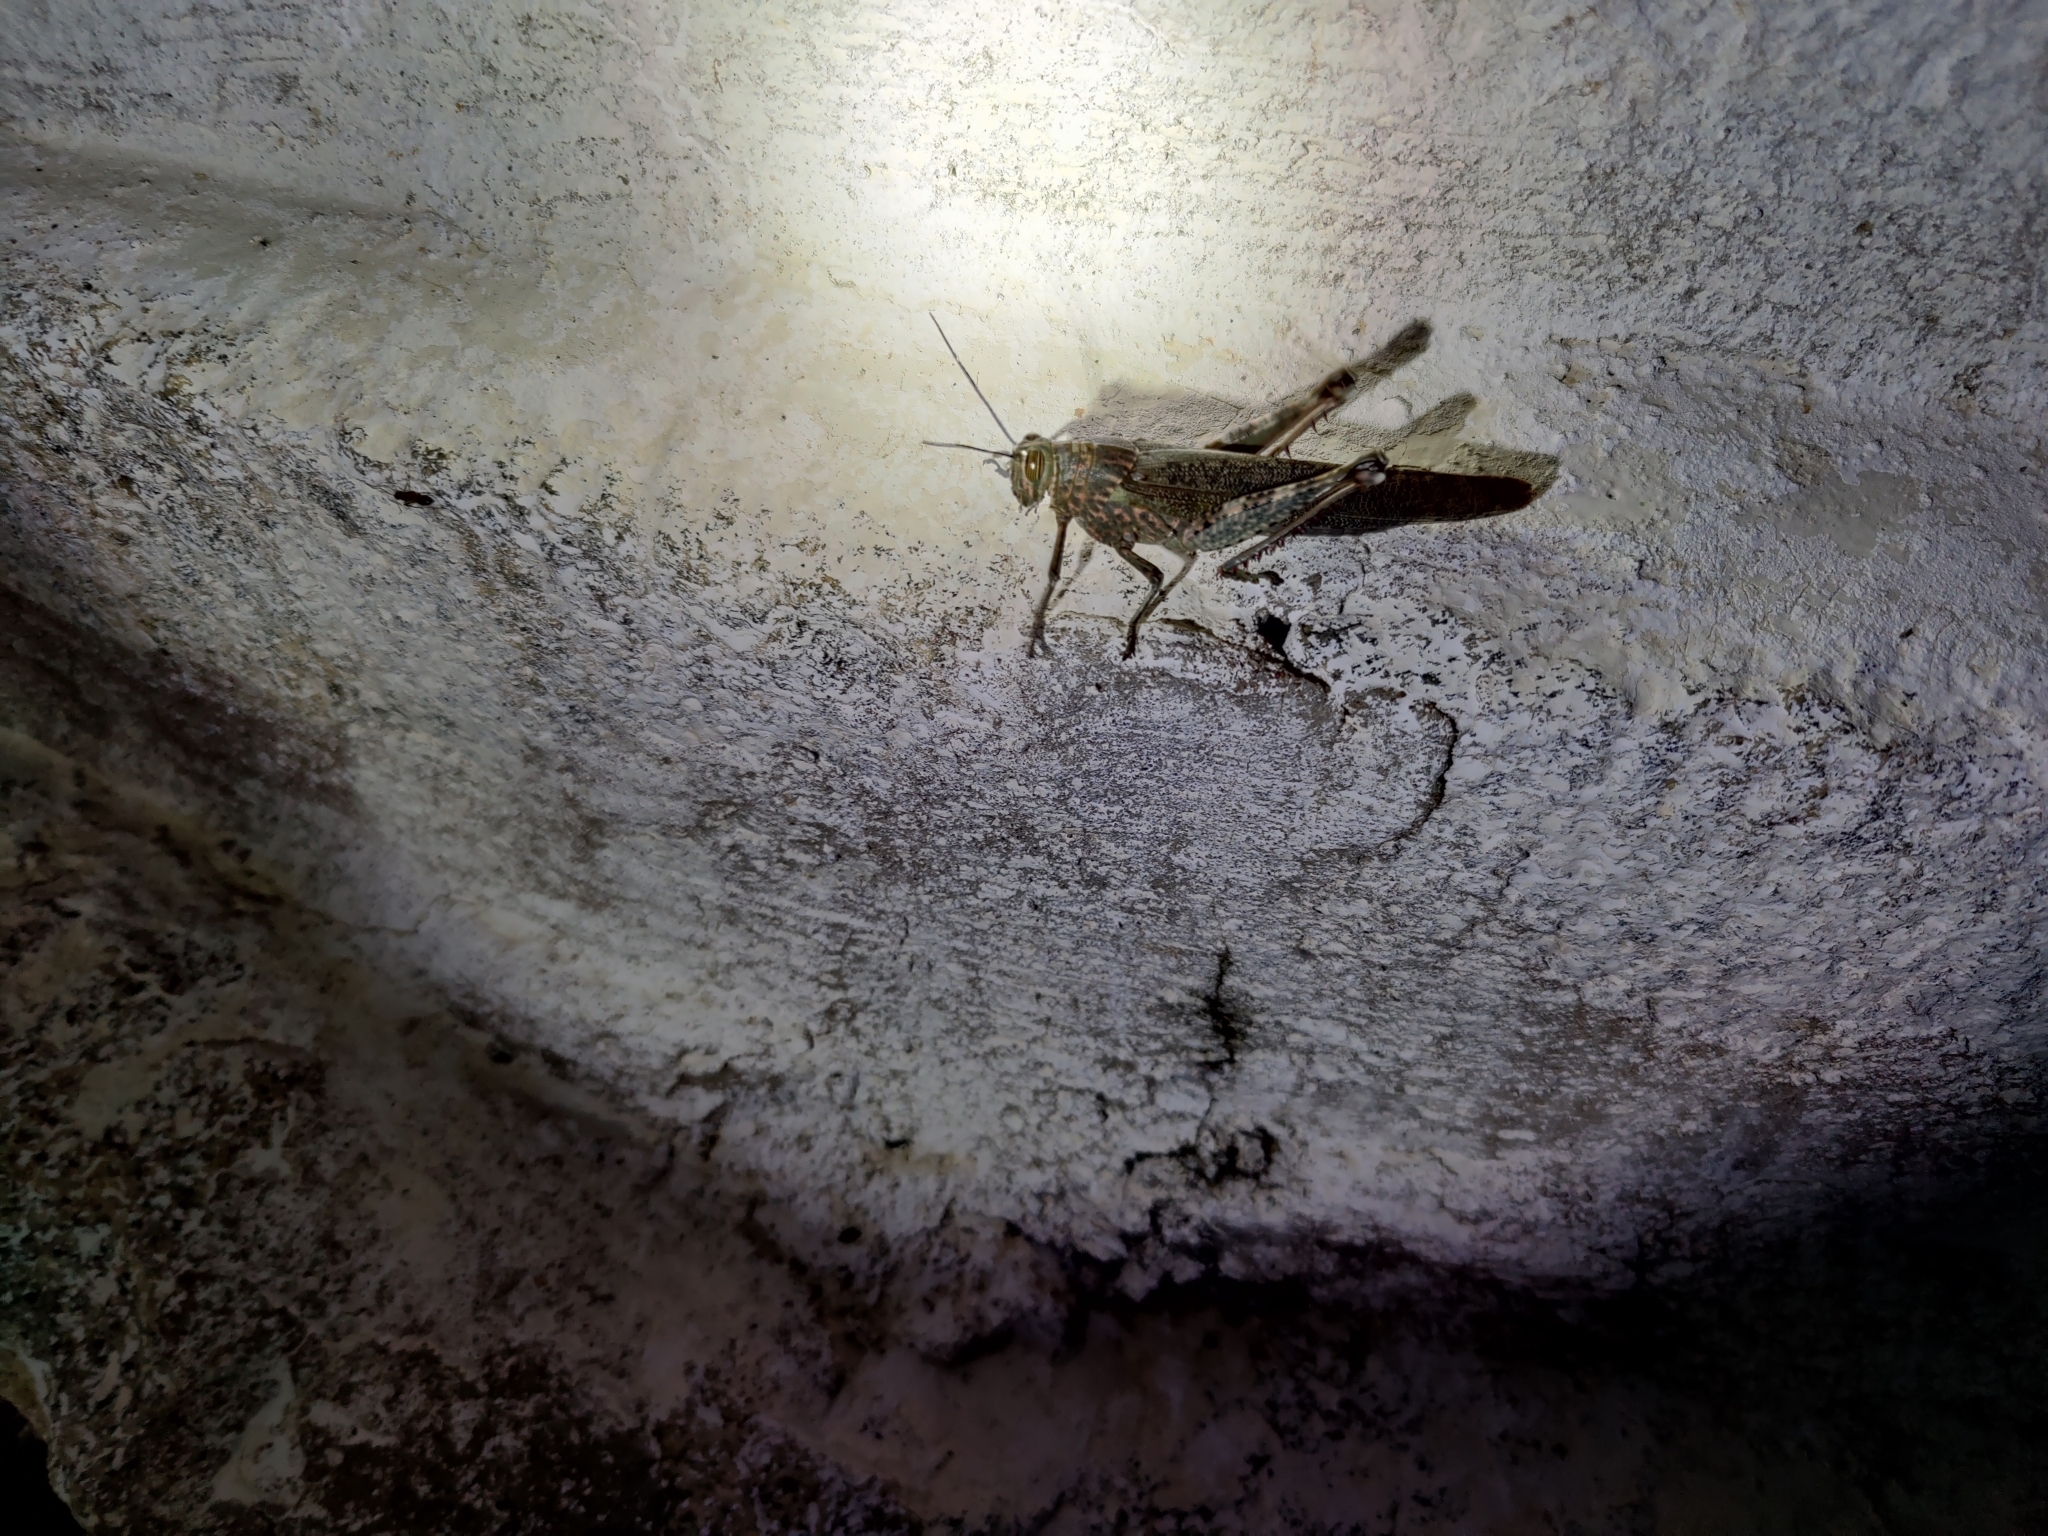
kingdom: Animalia
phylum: Arthropoda
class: Insecta
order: Orthoptera
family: Acrididae
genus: Anacridium
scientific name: Anacridium flavescens
